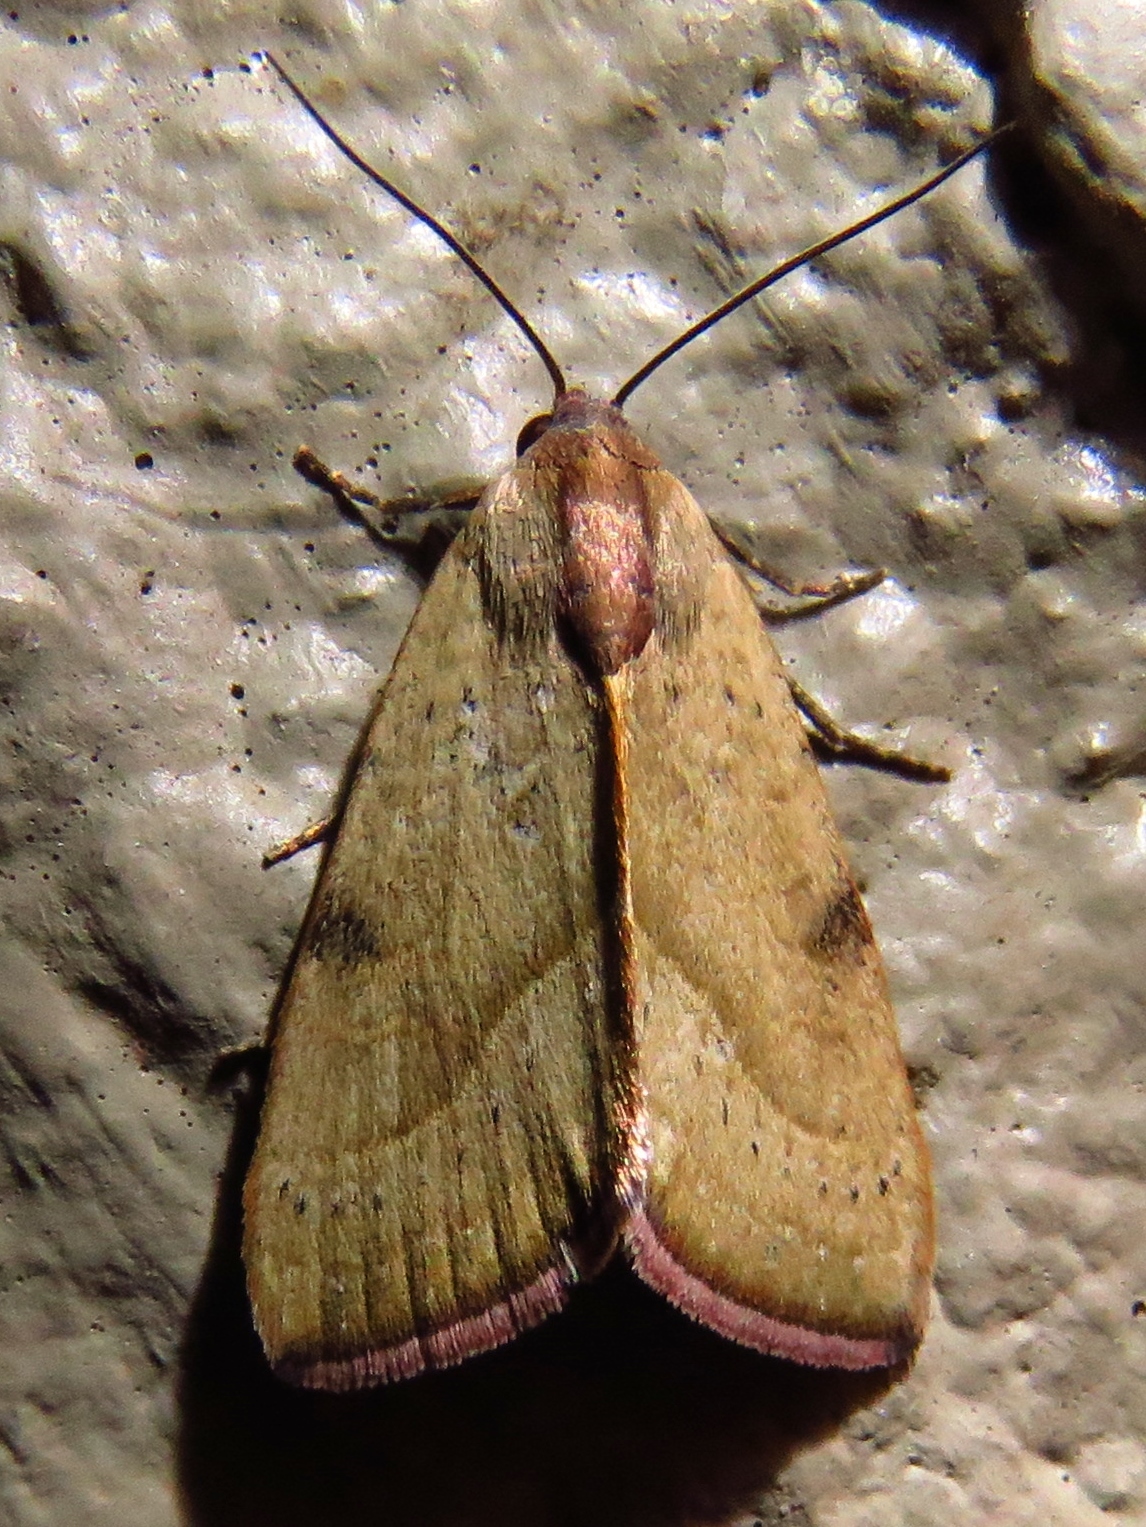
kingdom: Animalia
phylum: Arthropoda
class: Insecta
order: Lepidoptera
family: Noctuidae
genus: Galgula
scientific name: Galgula partita
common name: Wedgeling
